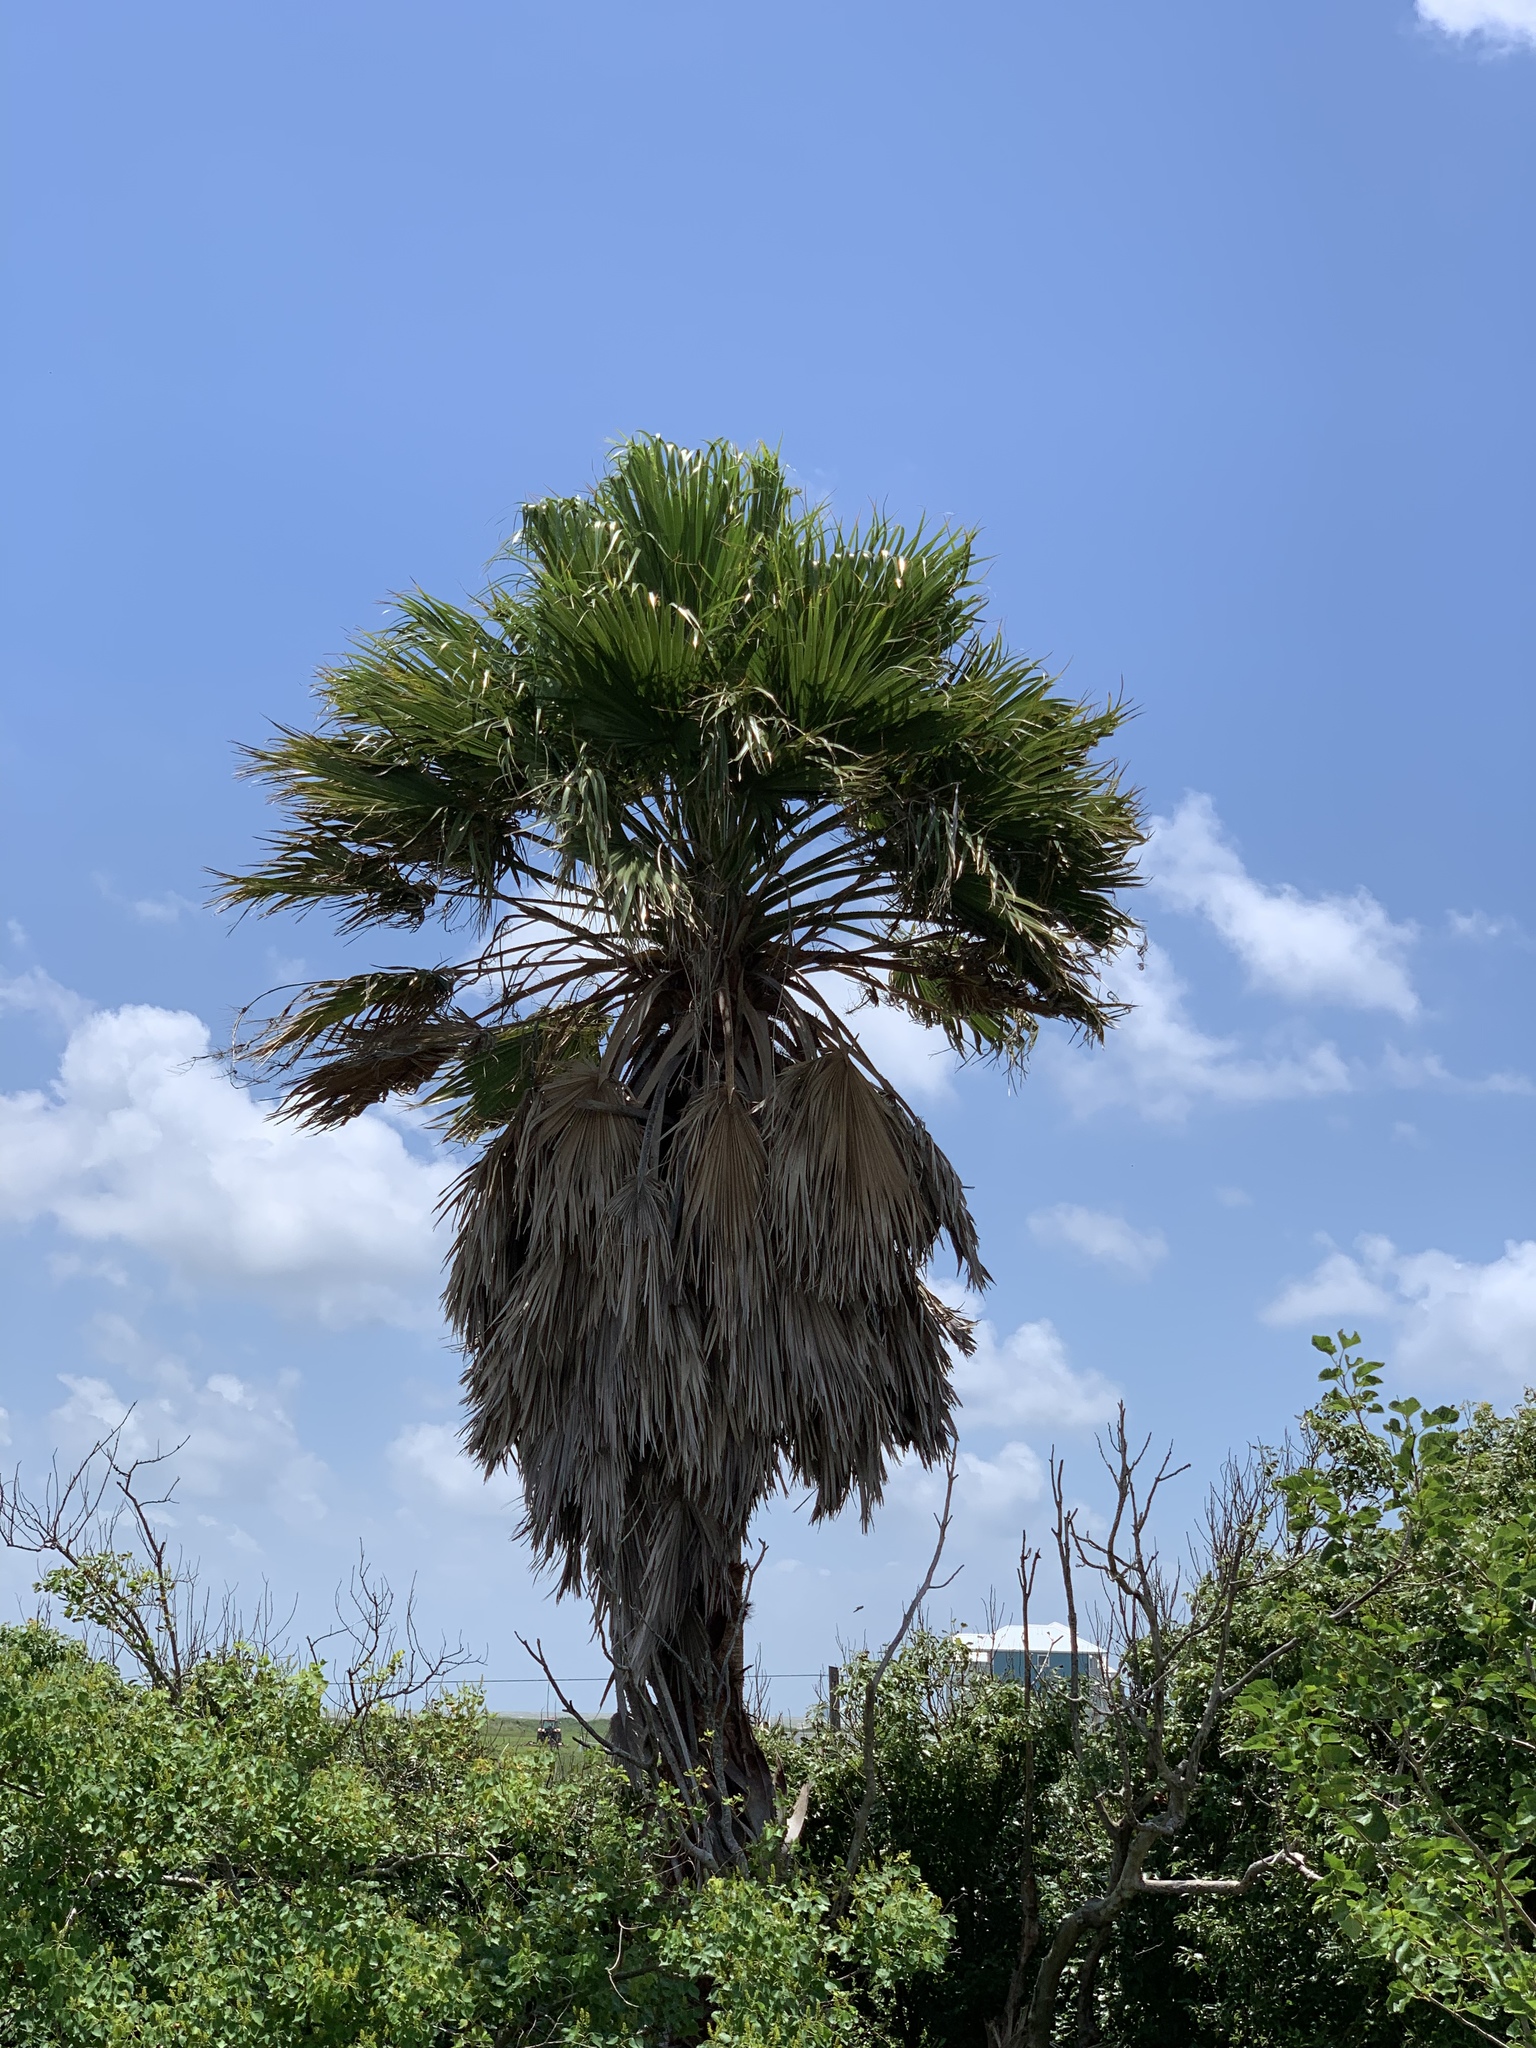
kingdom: Plantae
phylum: Tracheophyta
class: Liliopsida
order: Arecales
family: Arecaceae
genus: Washingtonia
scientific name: Washingtonia robusta
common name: Mexican fan palm
